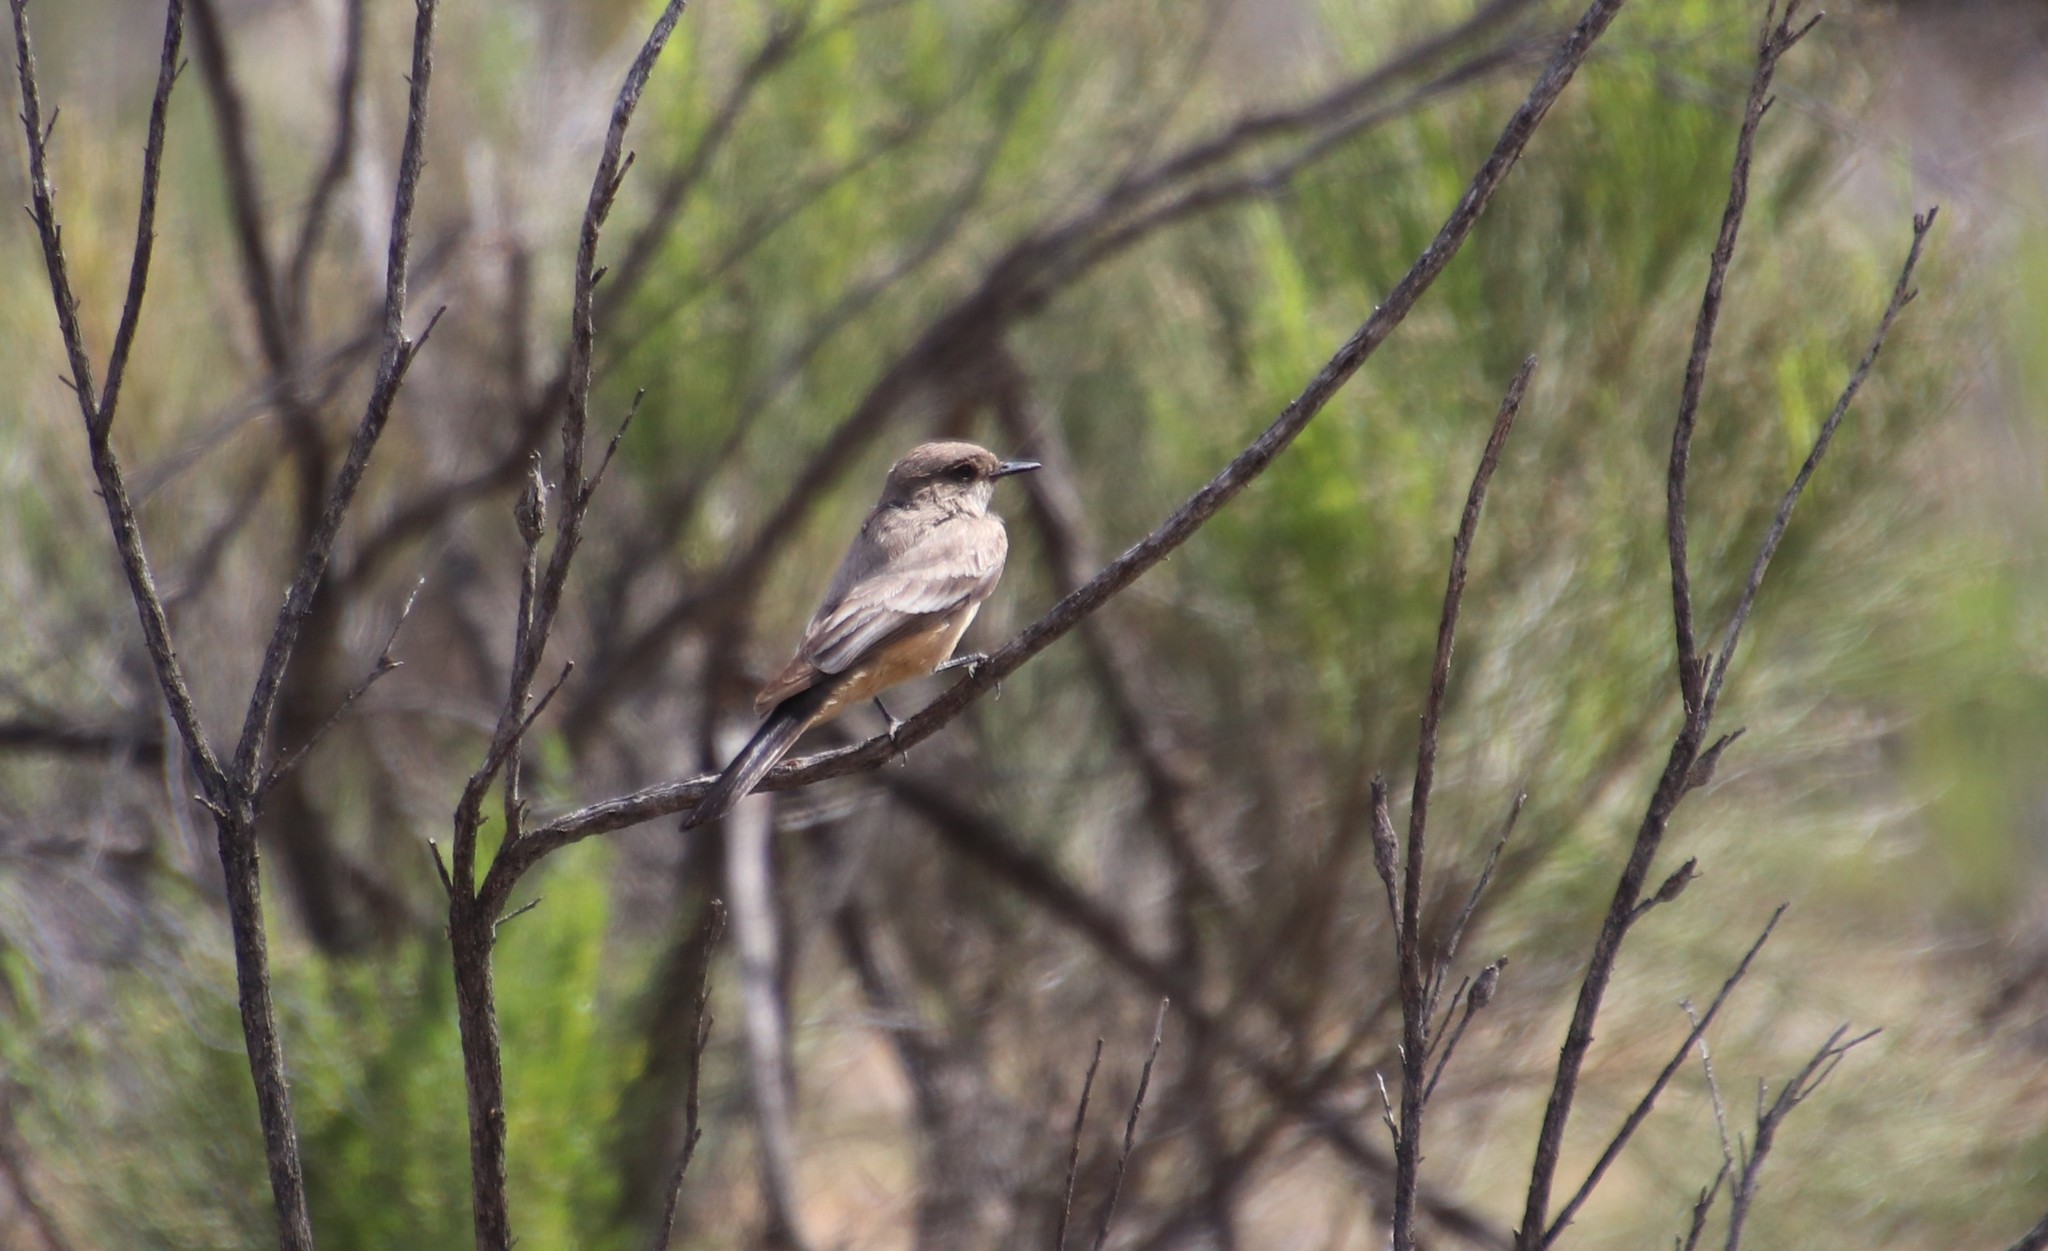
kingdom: Animalia
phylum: Chordata
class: Aves
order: Passeriformes
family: Tyrannidae
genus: Sayornis
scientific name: Sayornis saya
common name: Say's phoebe
